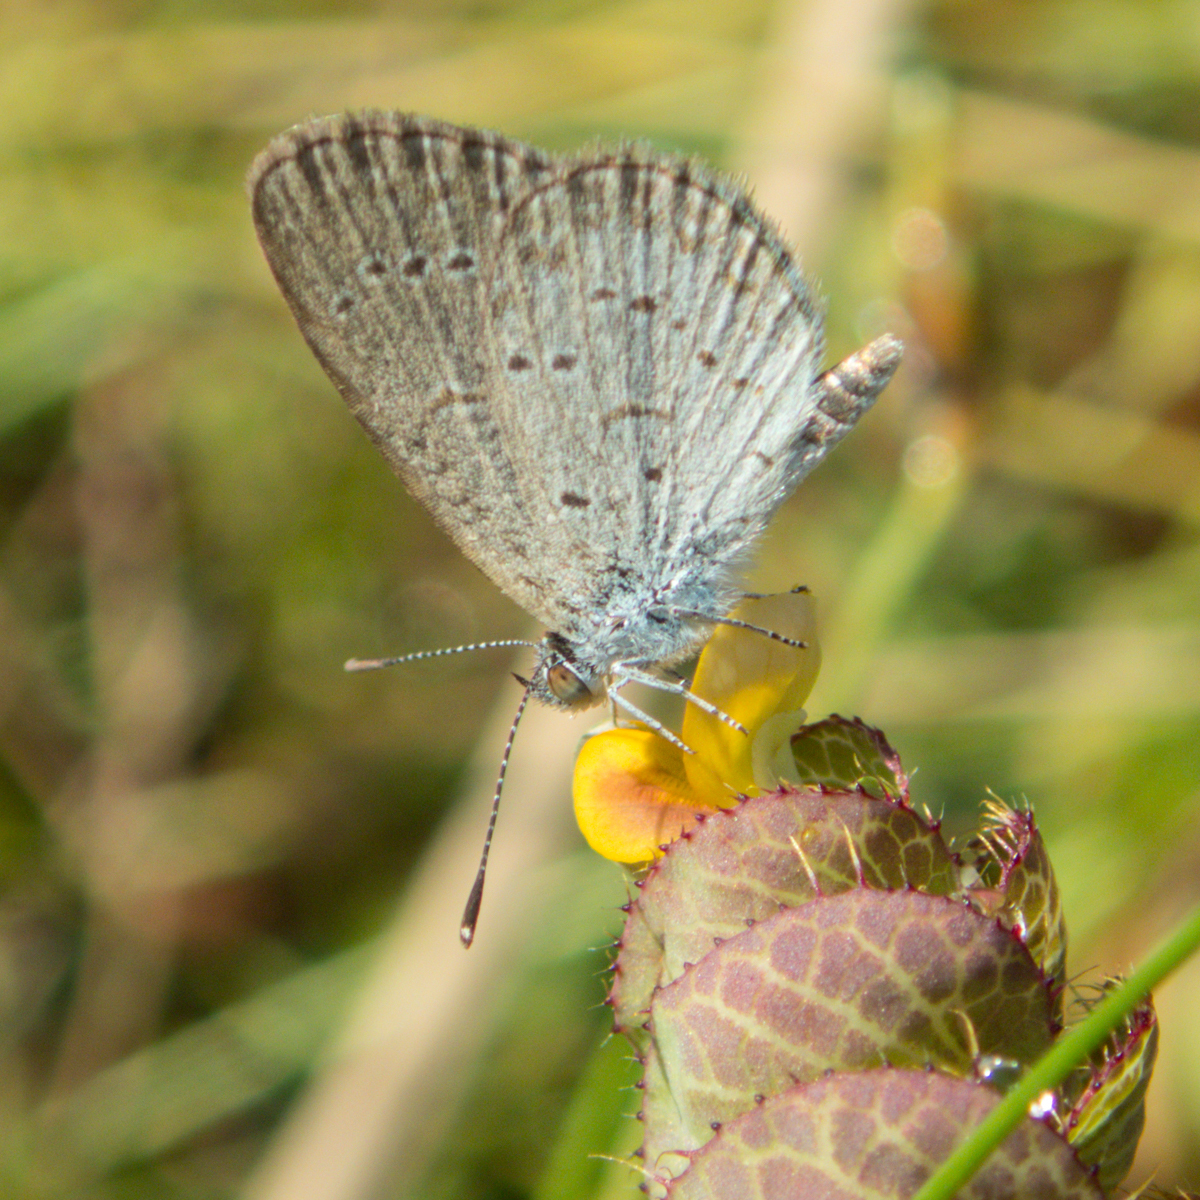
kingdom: Animalia
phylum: Arthropoda
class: Insecta
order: Lepidoptera
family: Lycaenidae
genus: Zizina
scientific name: Zizina otis
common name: Lesser grass blue
